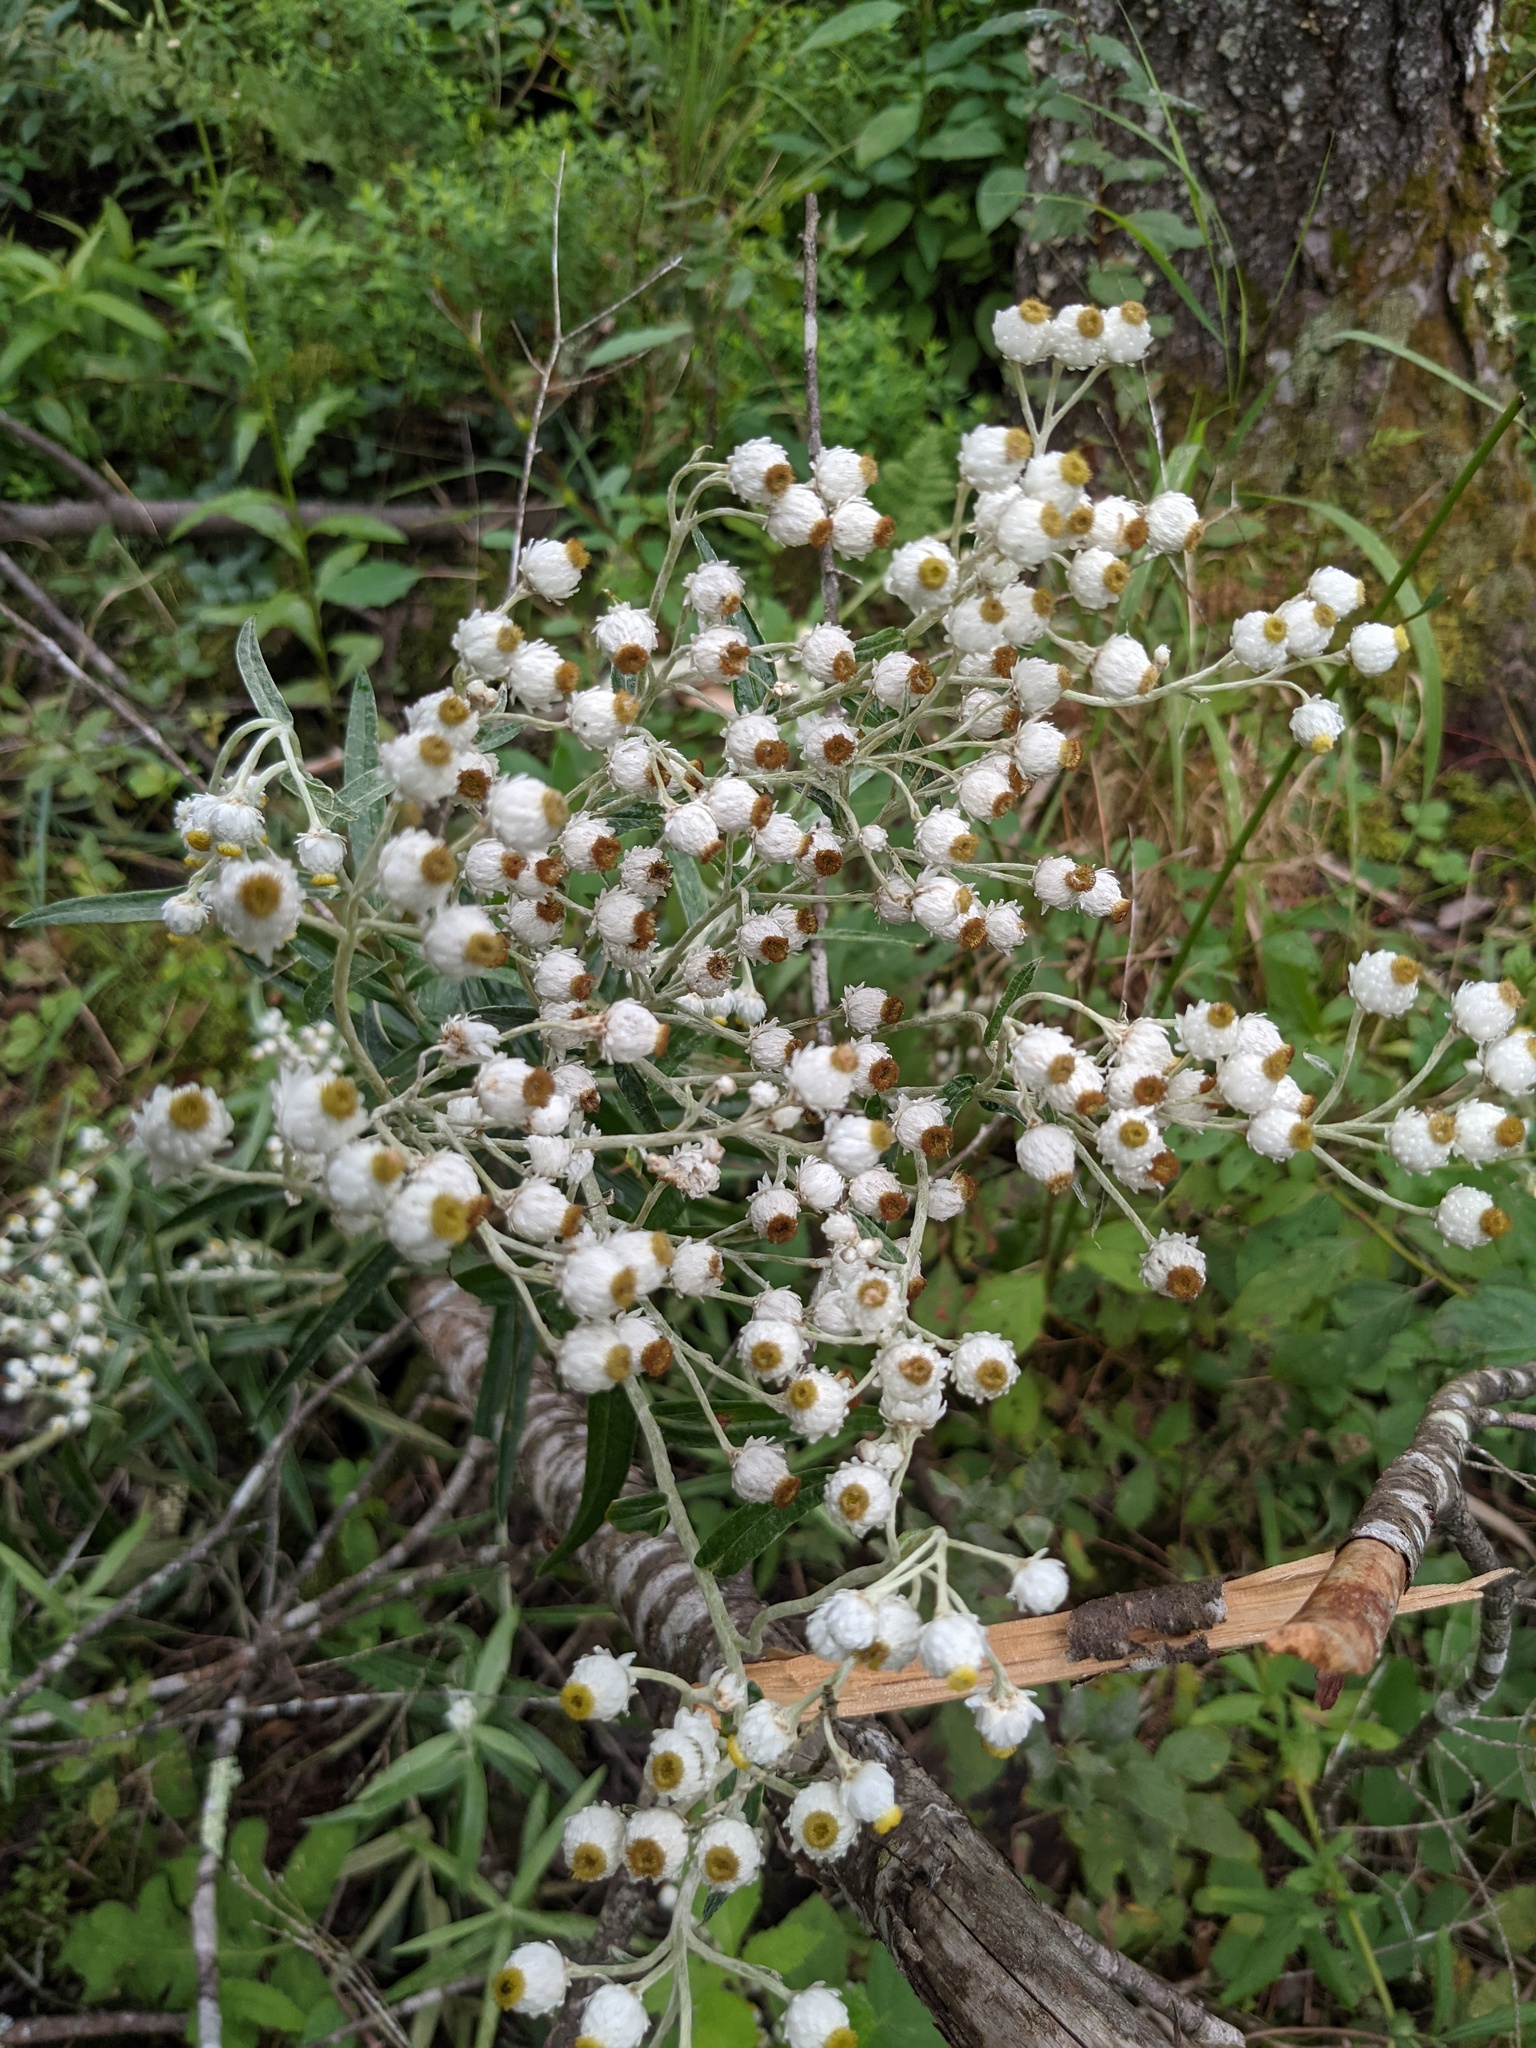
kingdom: Plantae
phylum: Tracheophyta
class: Magnoliopsida
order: Asterales
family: Asteraceae
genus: Anaphalis
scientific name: Anaphalis margaritacea
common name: Pearly everlasting
